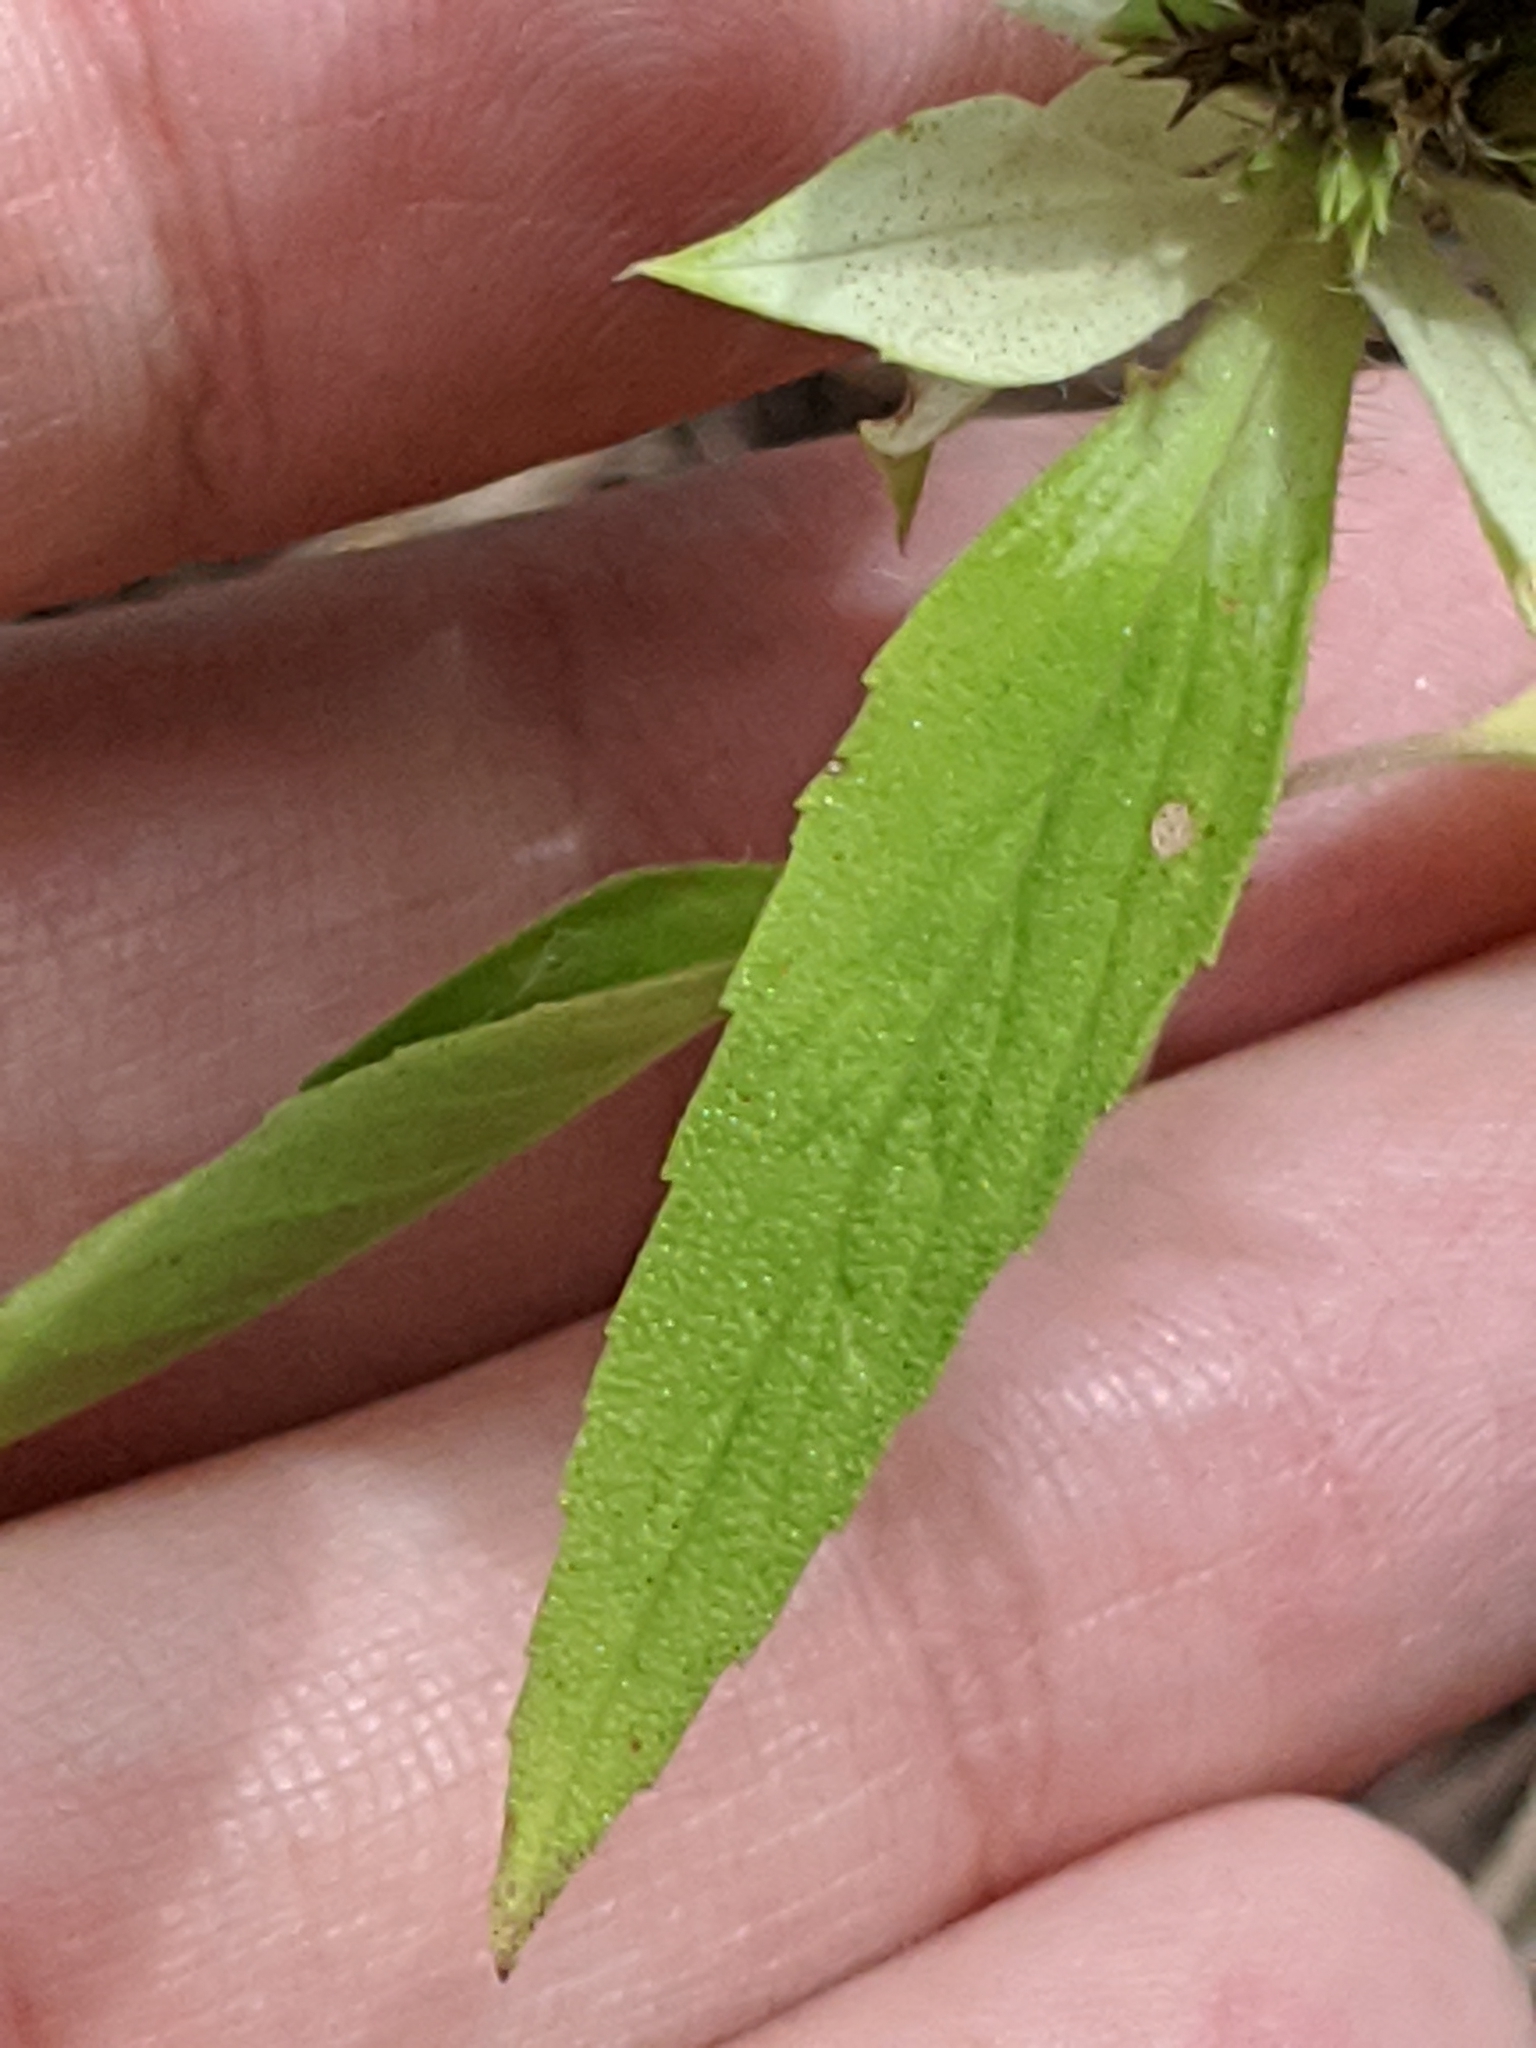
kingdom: Plantae
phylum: Tracheophyta
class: Magnoliopsida
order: Lamiales
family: Lamiaceae
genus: Monarda
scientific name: Monarda punctata
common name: Dotted monarda
